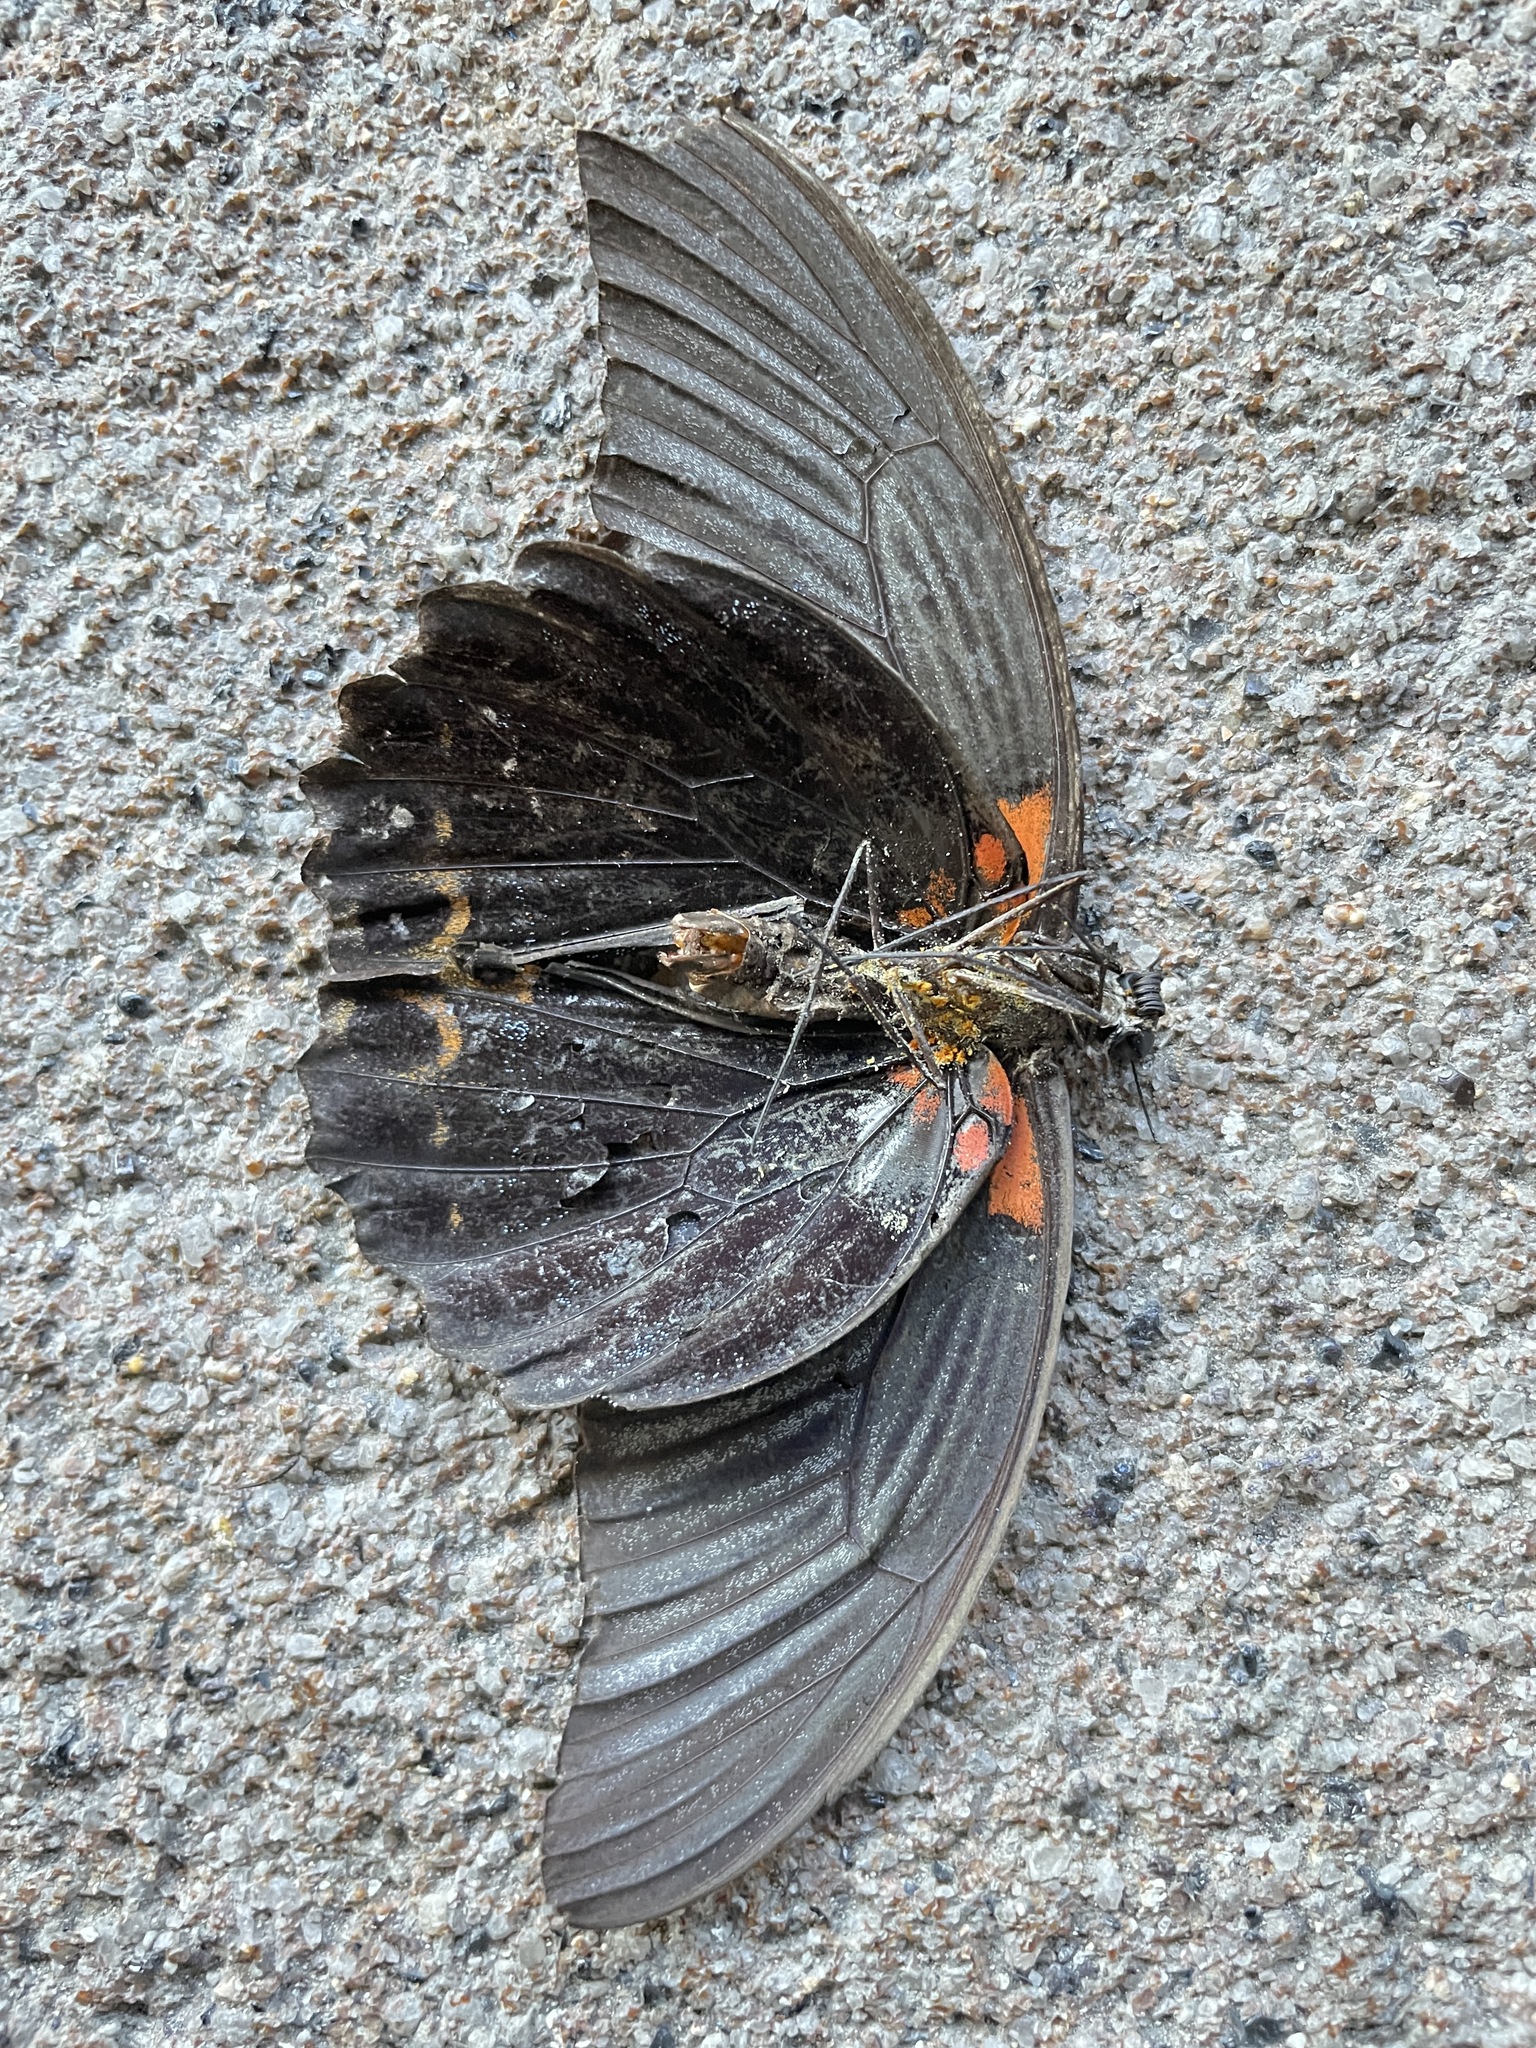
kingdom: Animalia
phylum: Arthropoda
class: Insecta
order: Lepidoptera
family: Papilionidae
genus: Papilio
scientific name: Papilio memnon
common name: Great mormon
